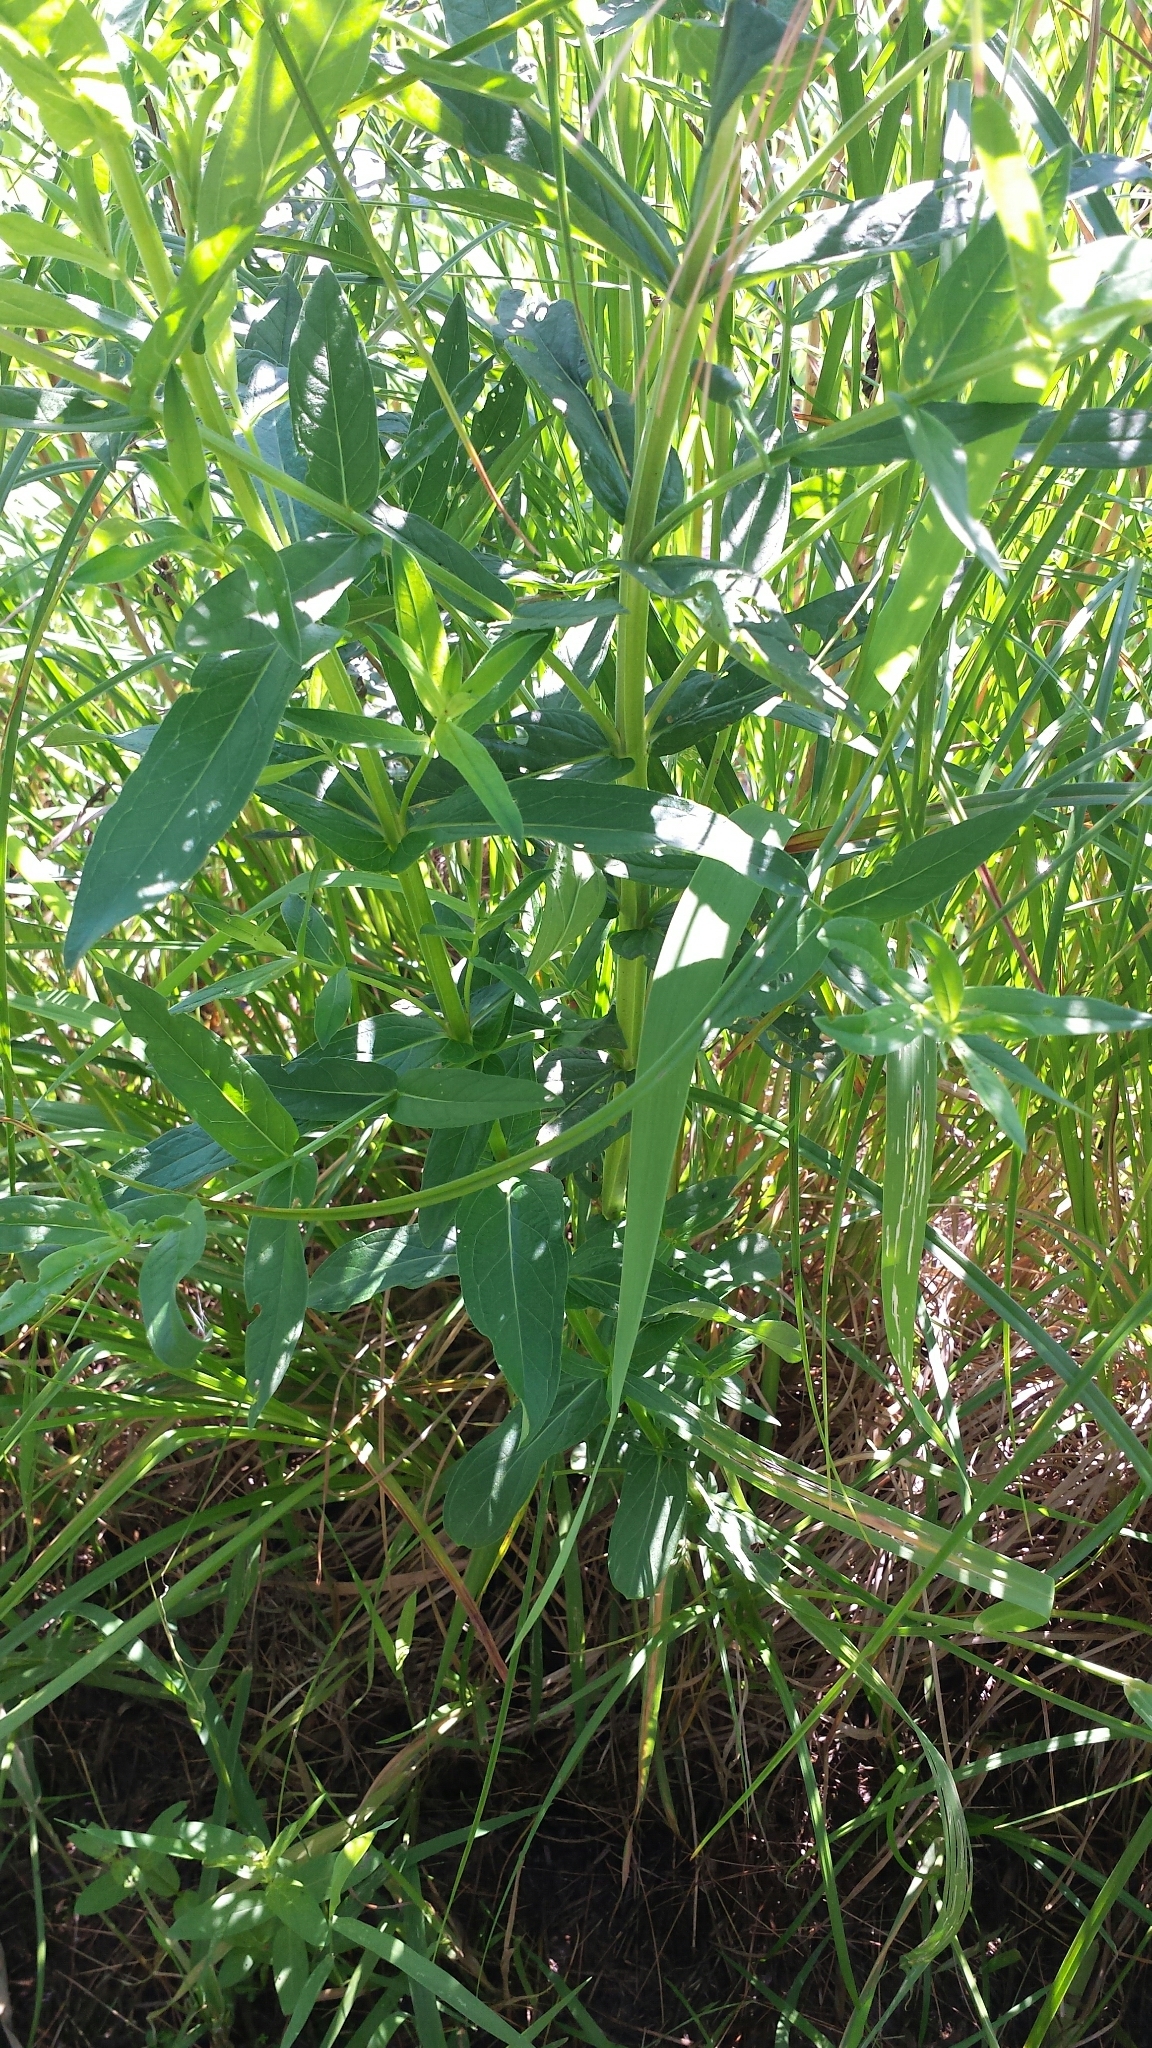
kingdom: Plantae
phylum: Tracheophyta
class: Magnoliopsida
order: Myrtales
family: Lythraceae
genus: Lythrum
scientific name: Lythrum salicaria
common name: Purple loosestrife
